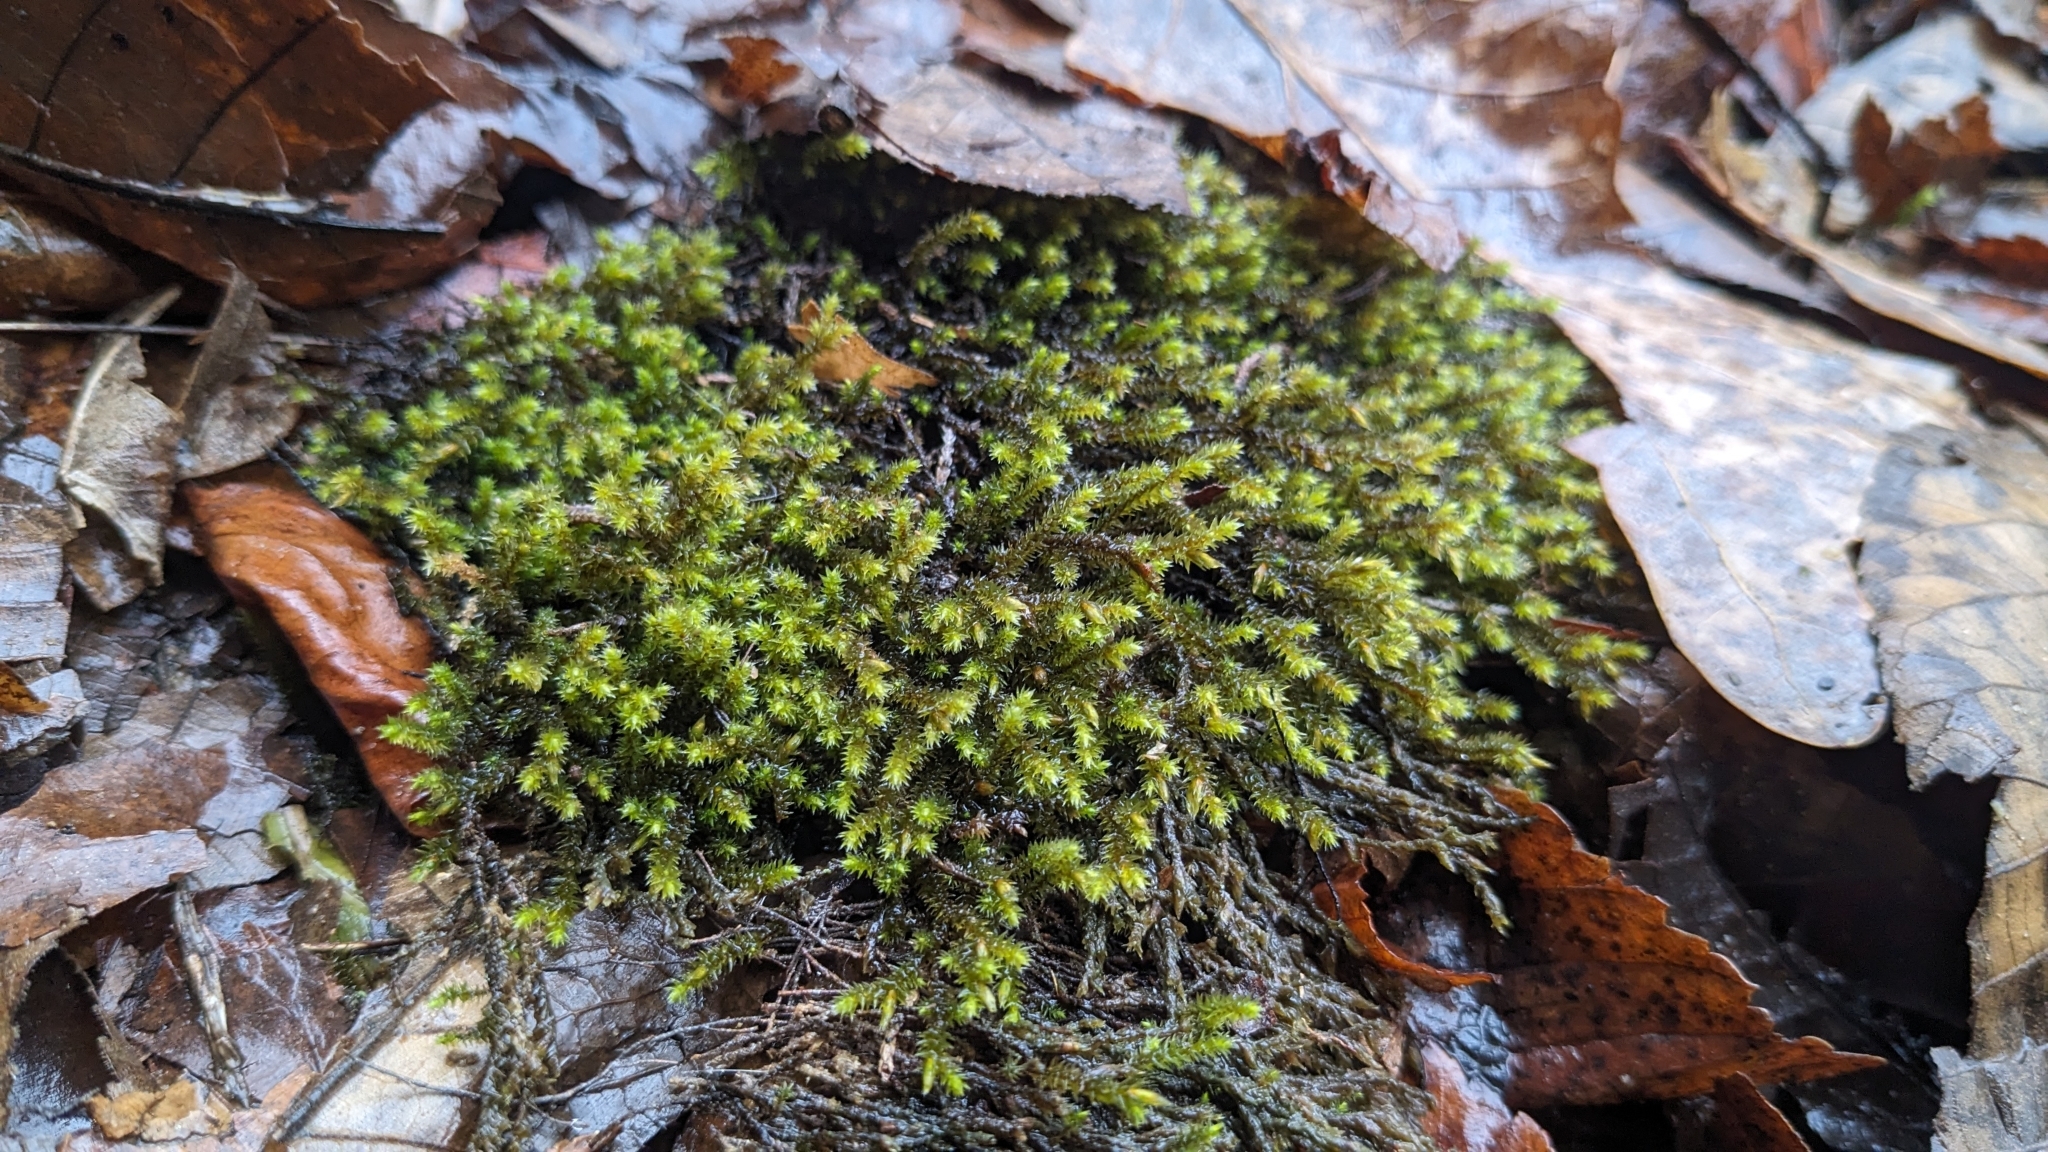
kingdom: Plantae
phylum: Bryophyta
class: Bryopsida
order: Hedwigiales
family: Hedwigiaceae
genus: Hedwigia
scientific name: Hedwigia ciliata
